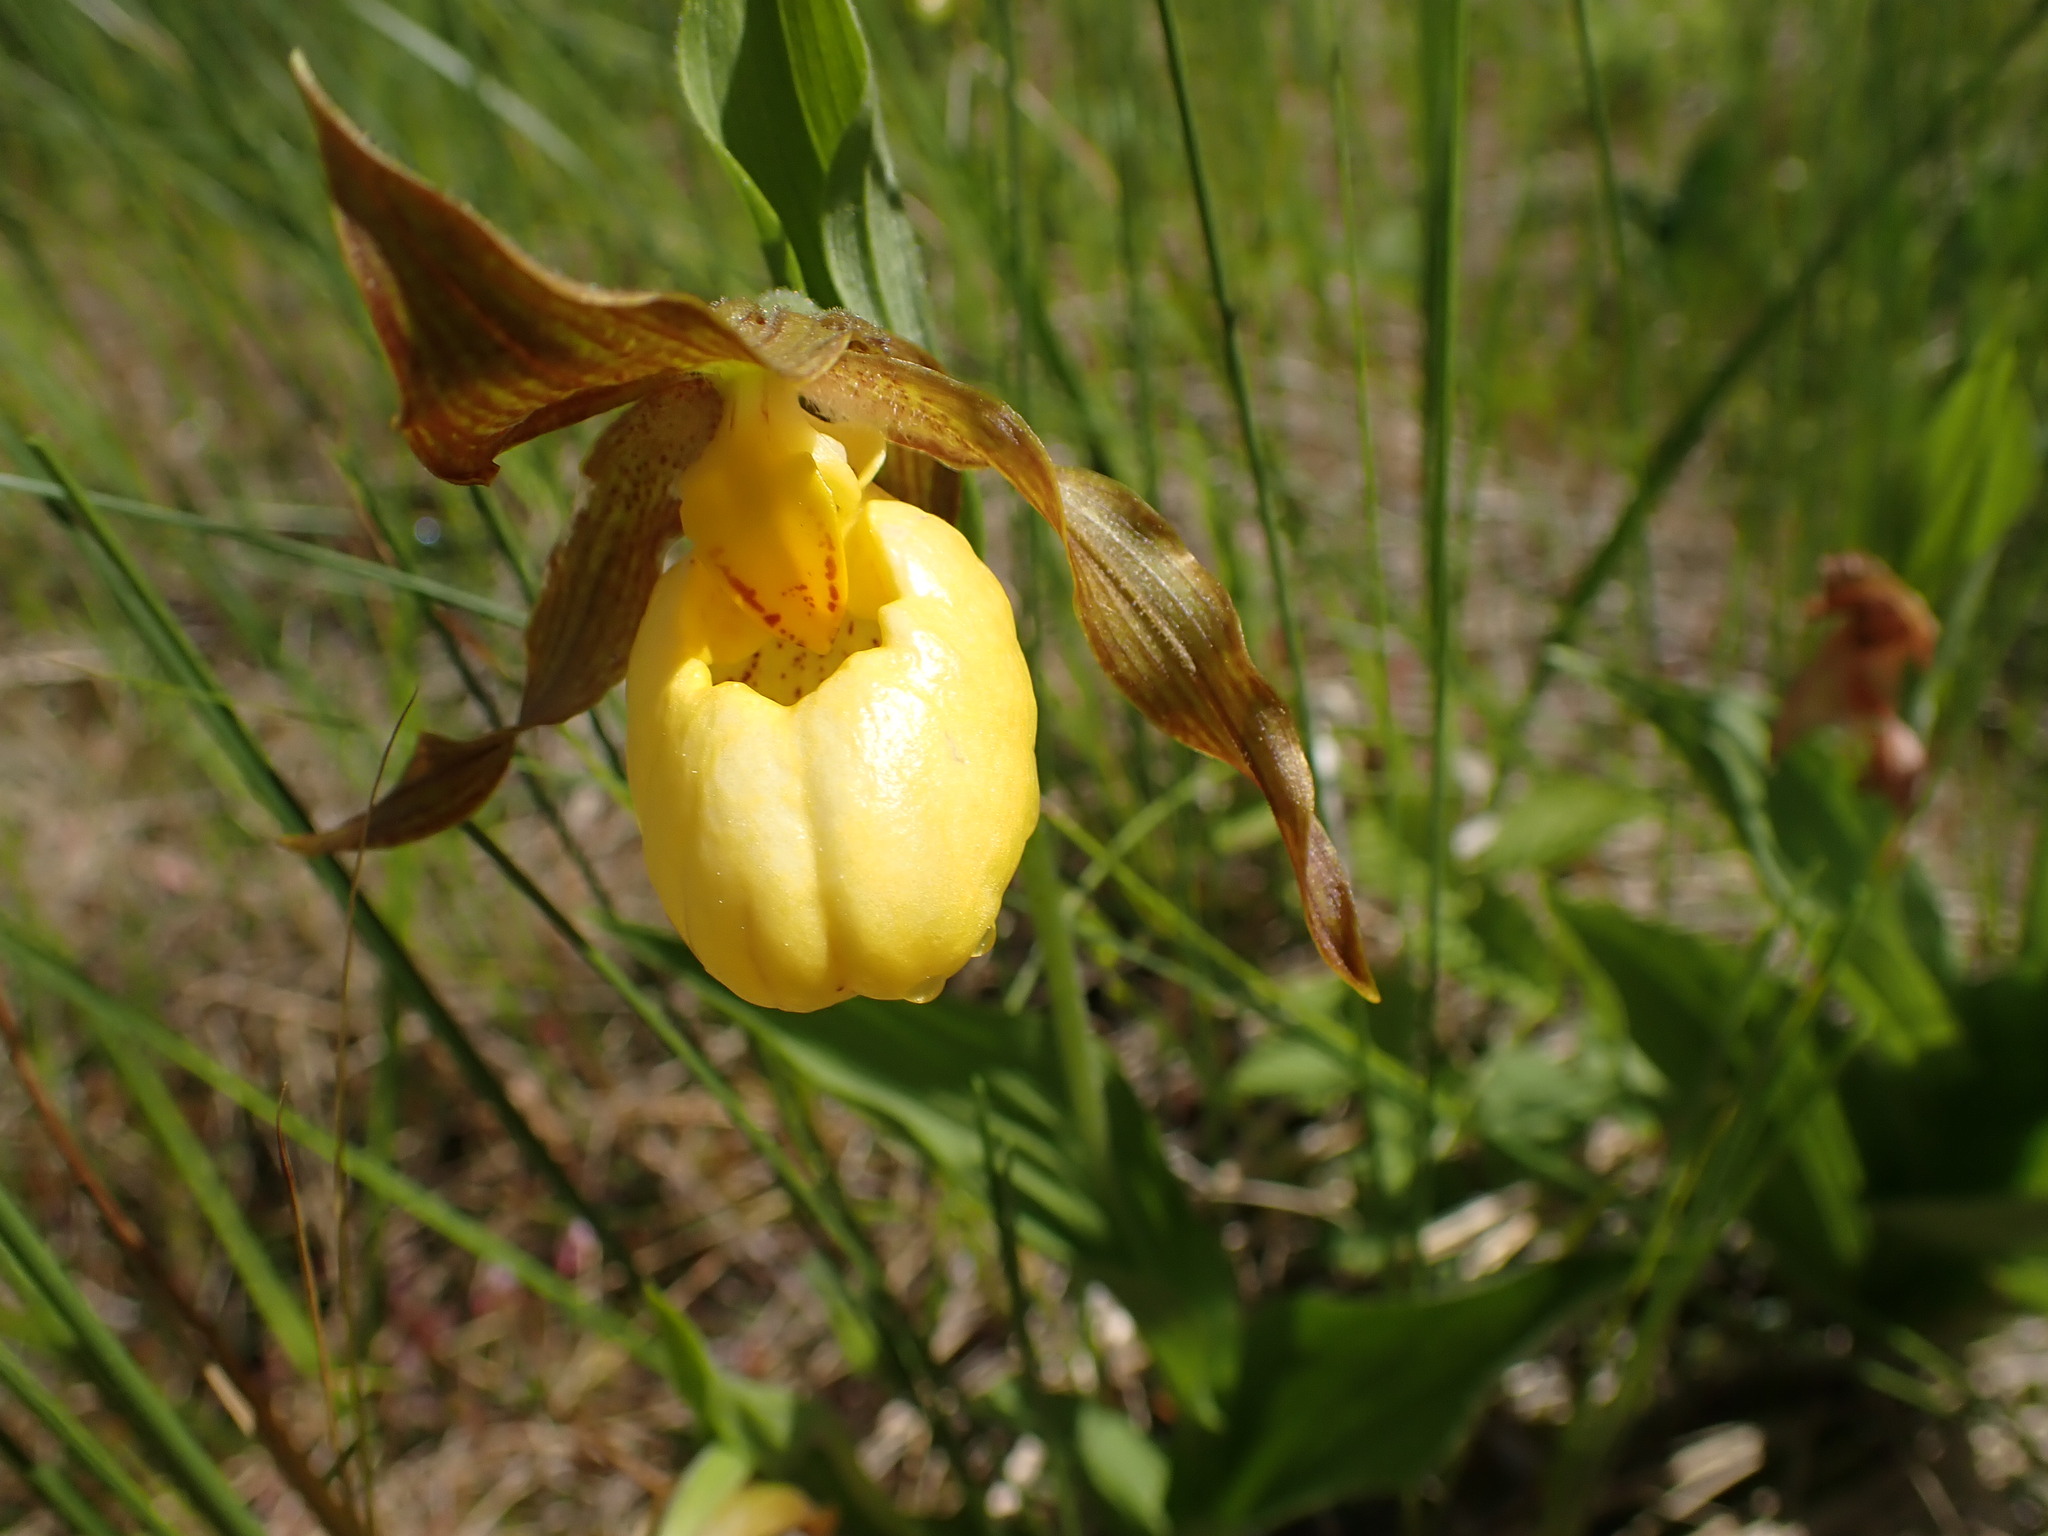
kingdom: Plantae
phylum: Tracheophyta
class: Liliopsida
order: Asparagales
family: Orchidaceae
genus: Cypripedium
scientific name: Cypripedium parviflorum
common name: American yellow lady's-slipper
